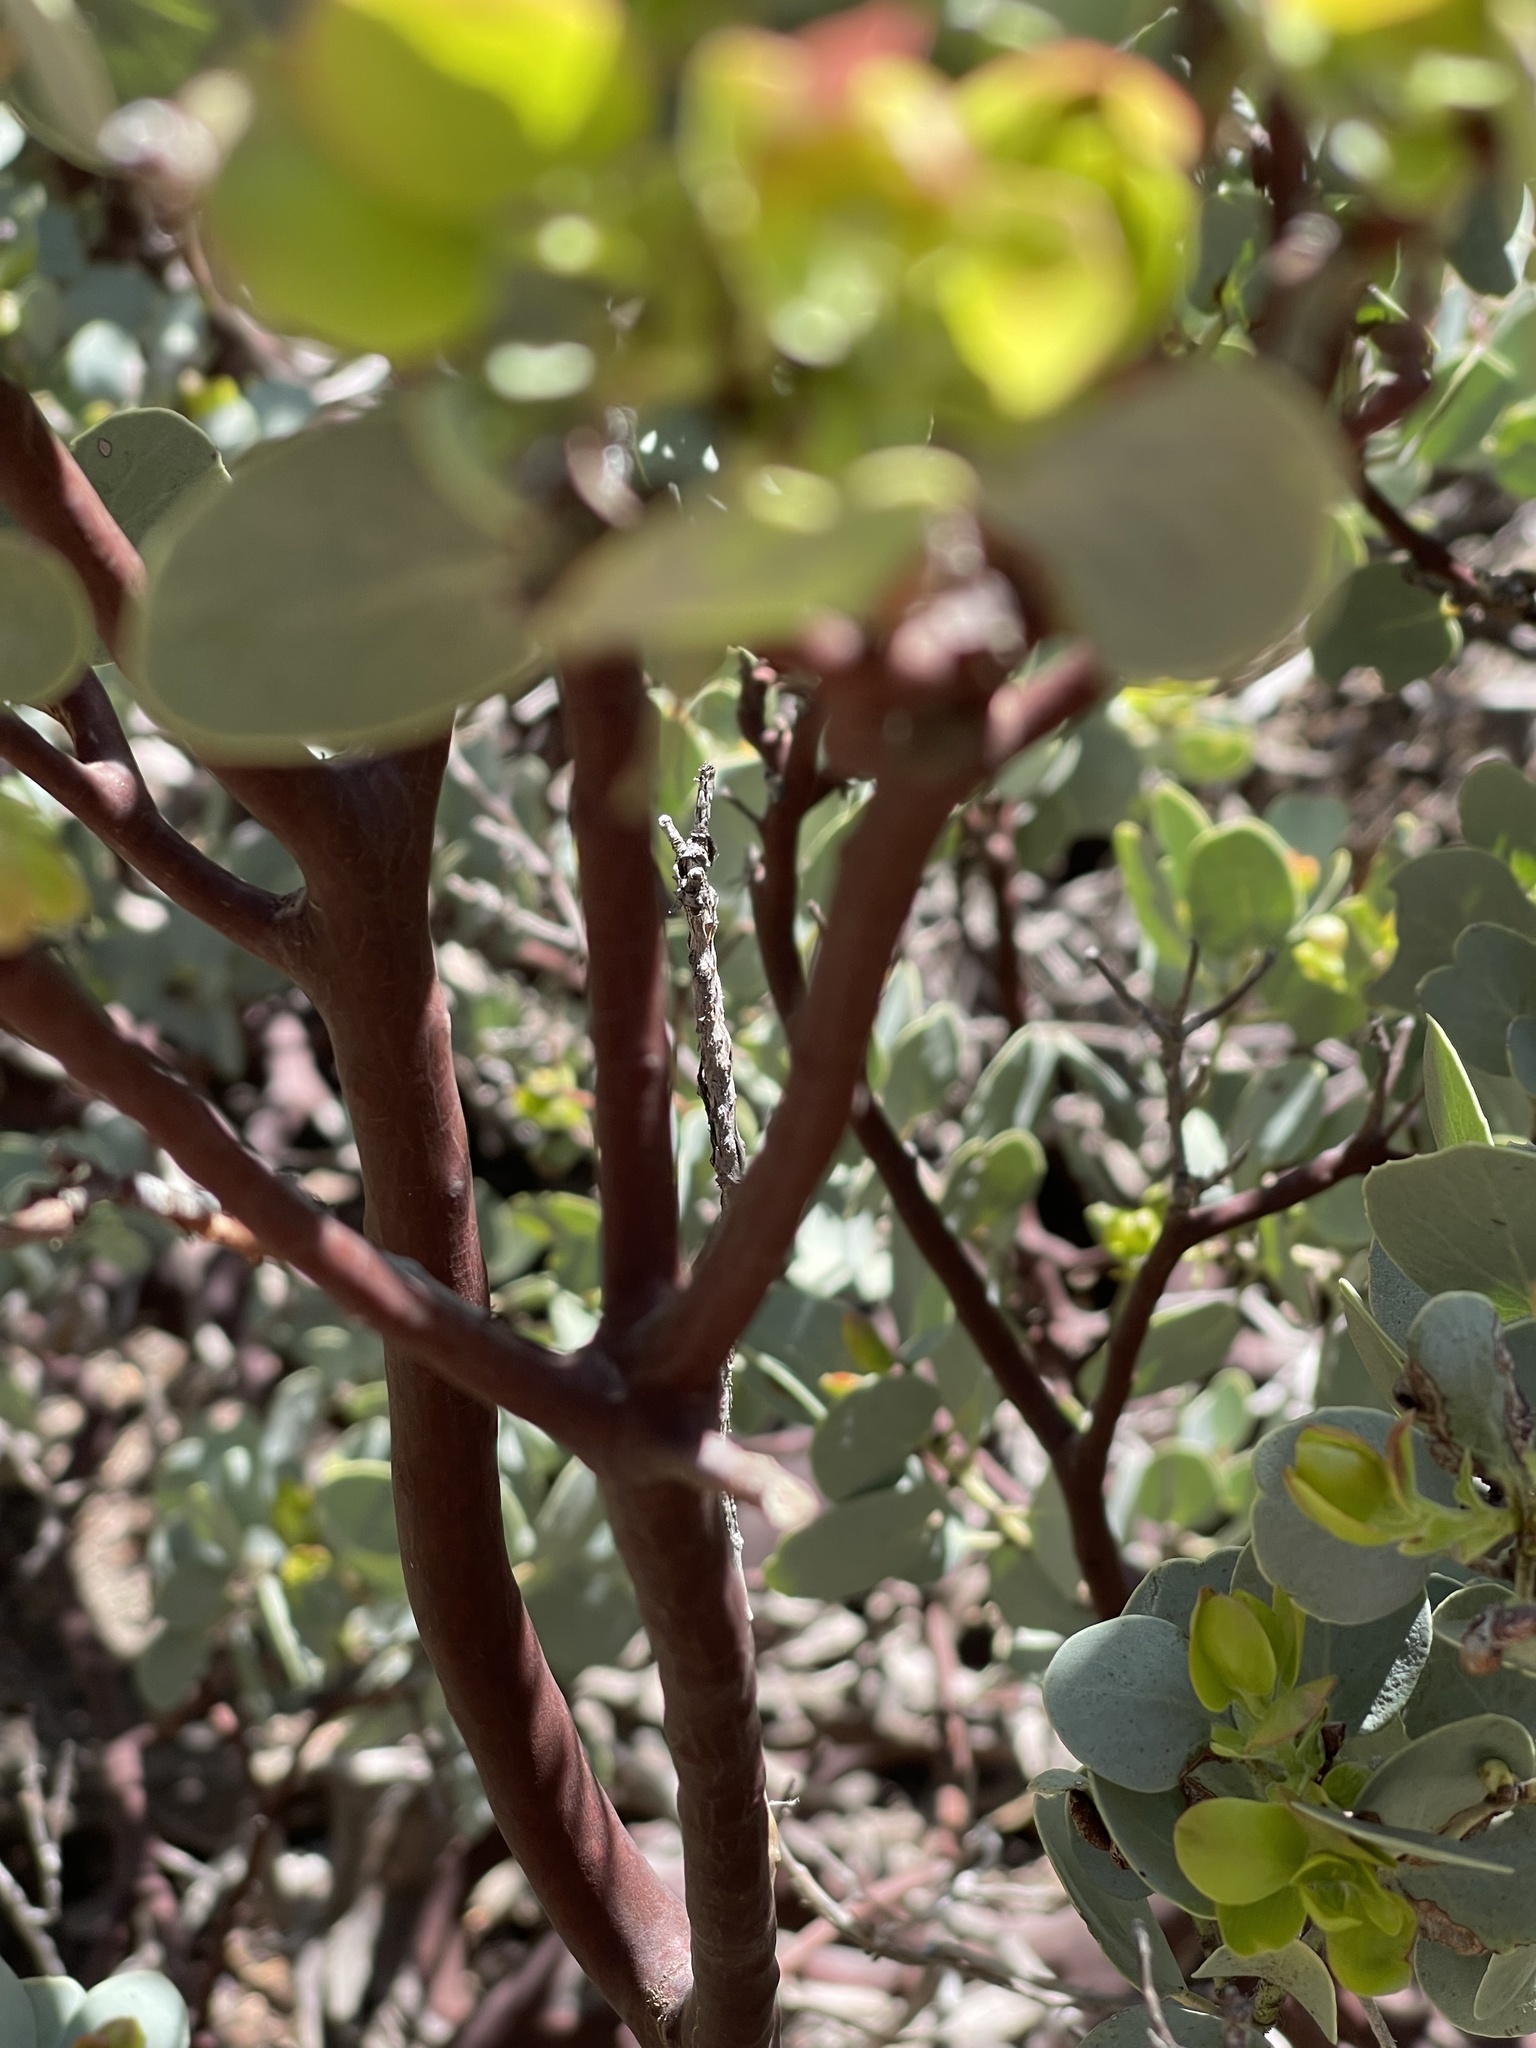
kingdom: Plantae
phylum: Tracheophyta
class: Magnoliopsida
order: Ericales
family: Ericaceae
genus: Arctostaphylos
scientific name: Arctostaphylos viscida
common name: White-leaf manzanita
